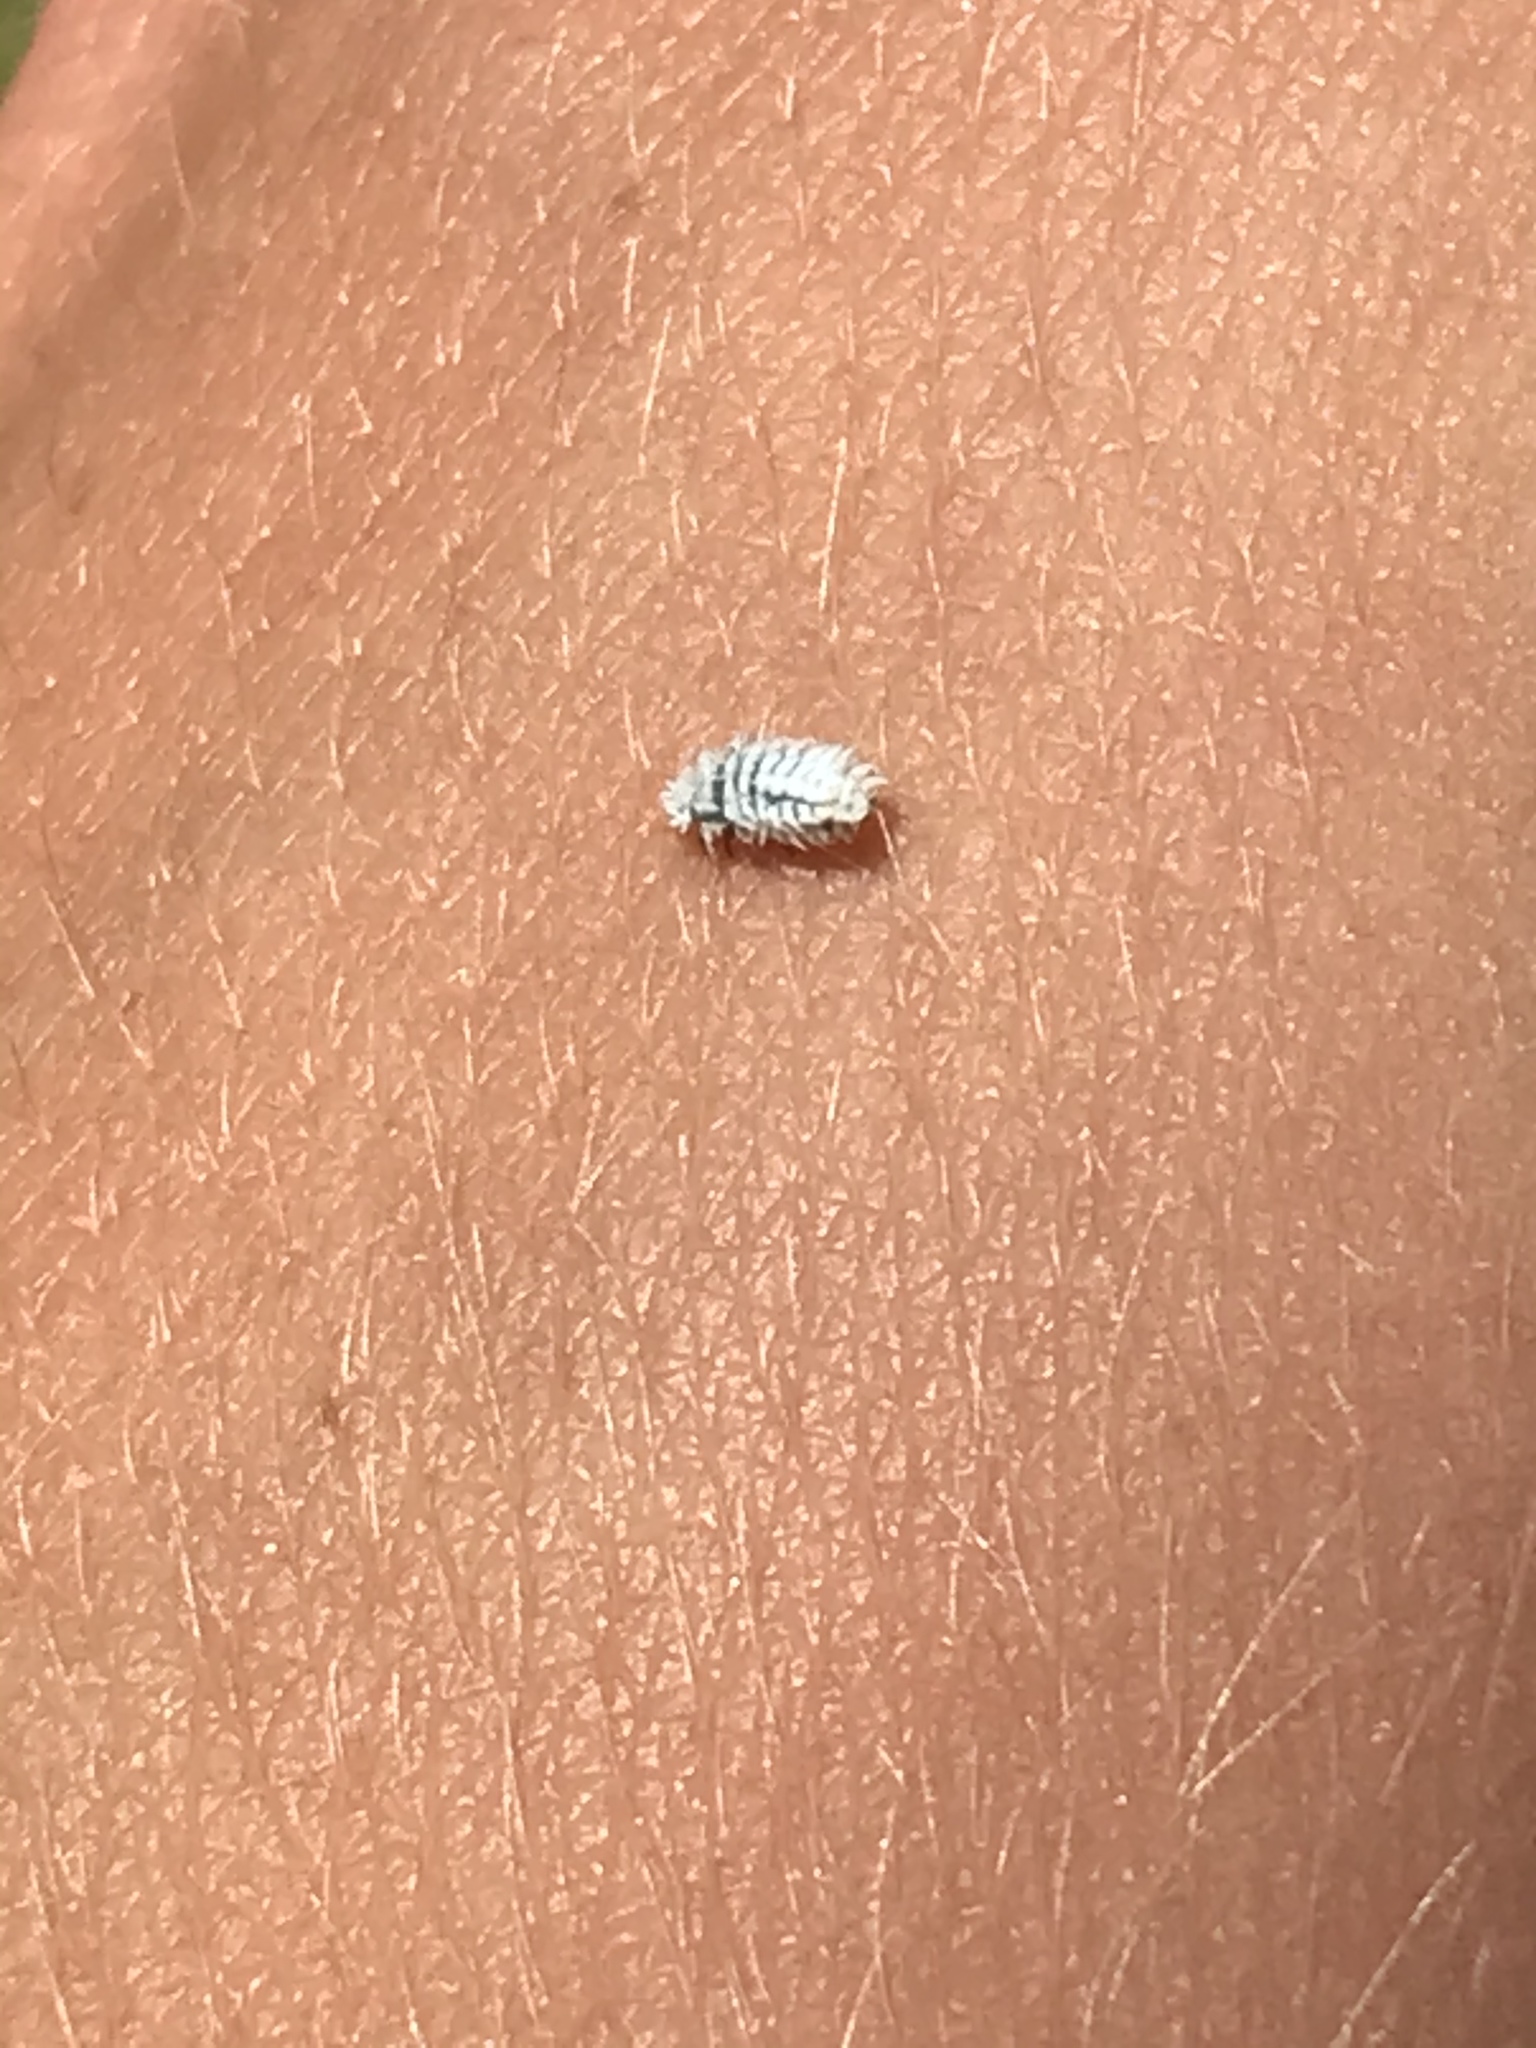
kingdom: Animalia
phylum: Arthropoda
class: Insecta
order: Coleoptera
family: Coccinellidae
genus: Cryptolaemus
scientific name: Cryptolaemus montrouzieri
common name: Mealybug destroyer
